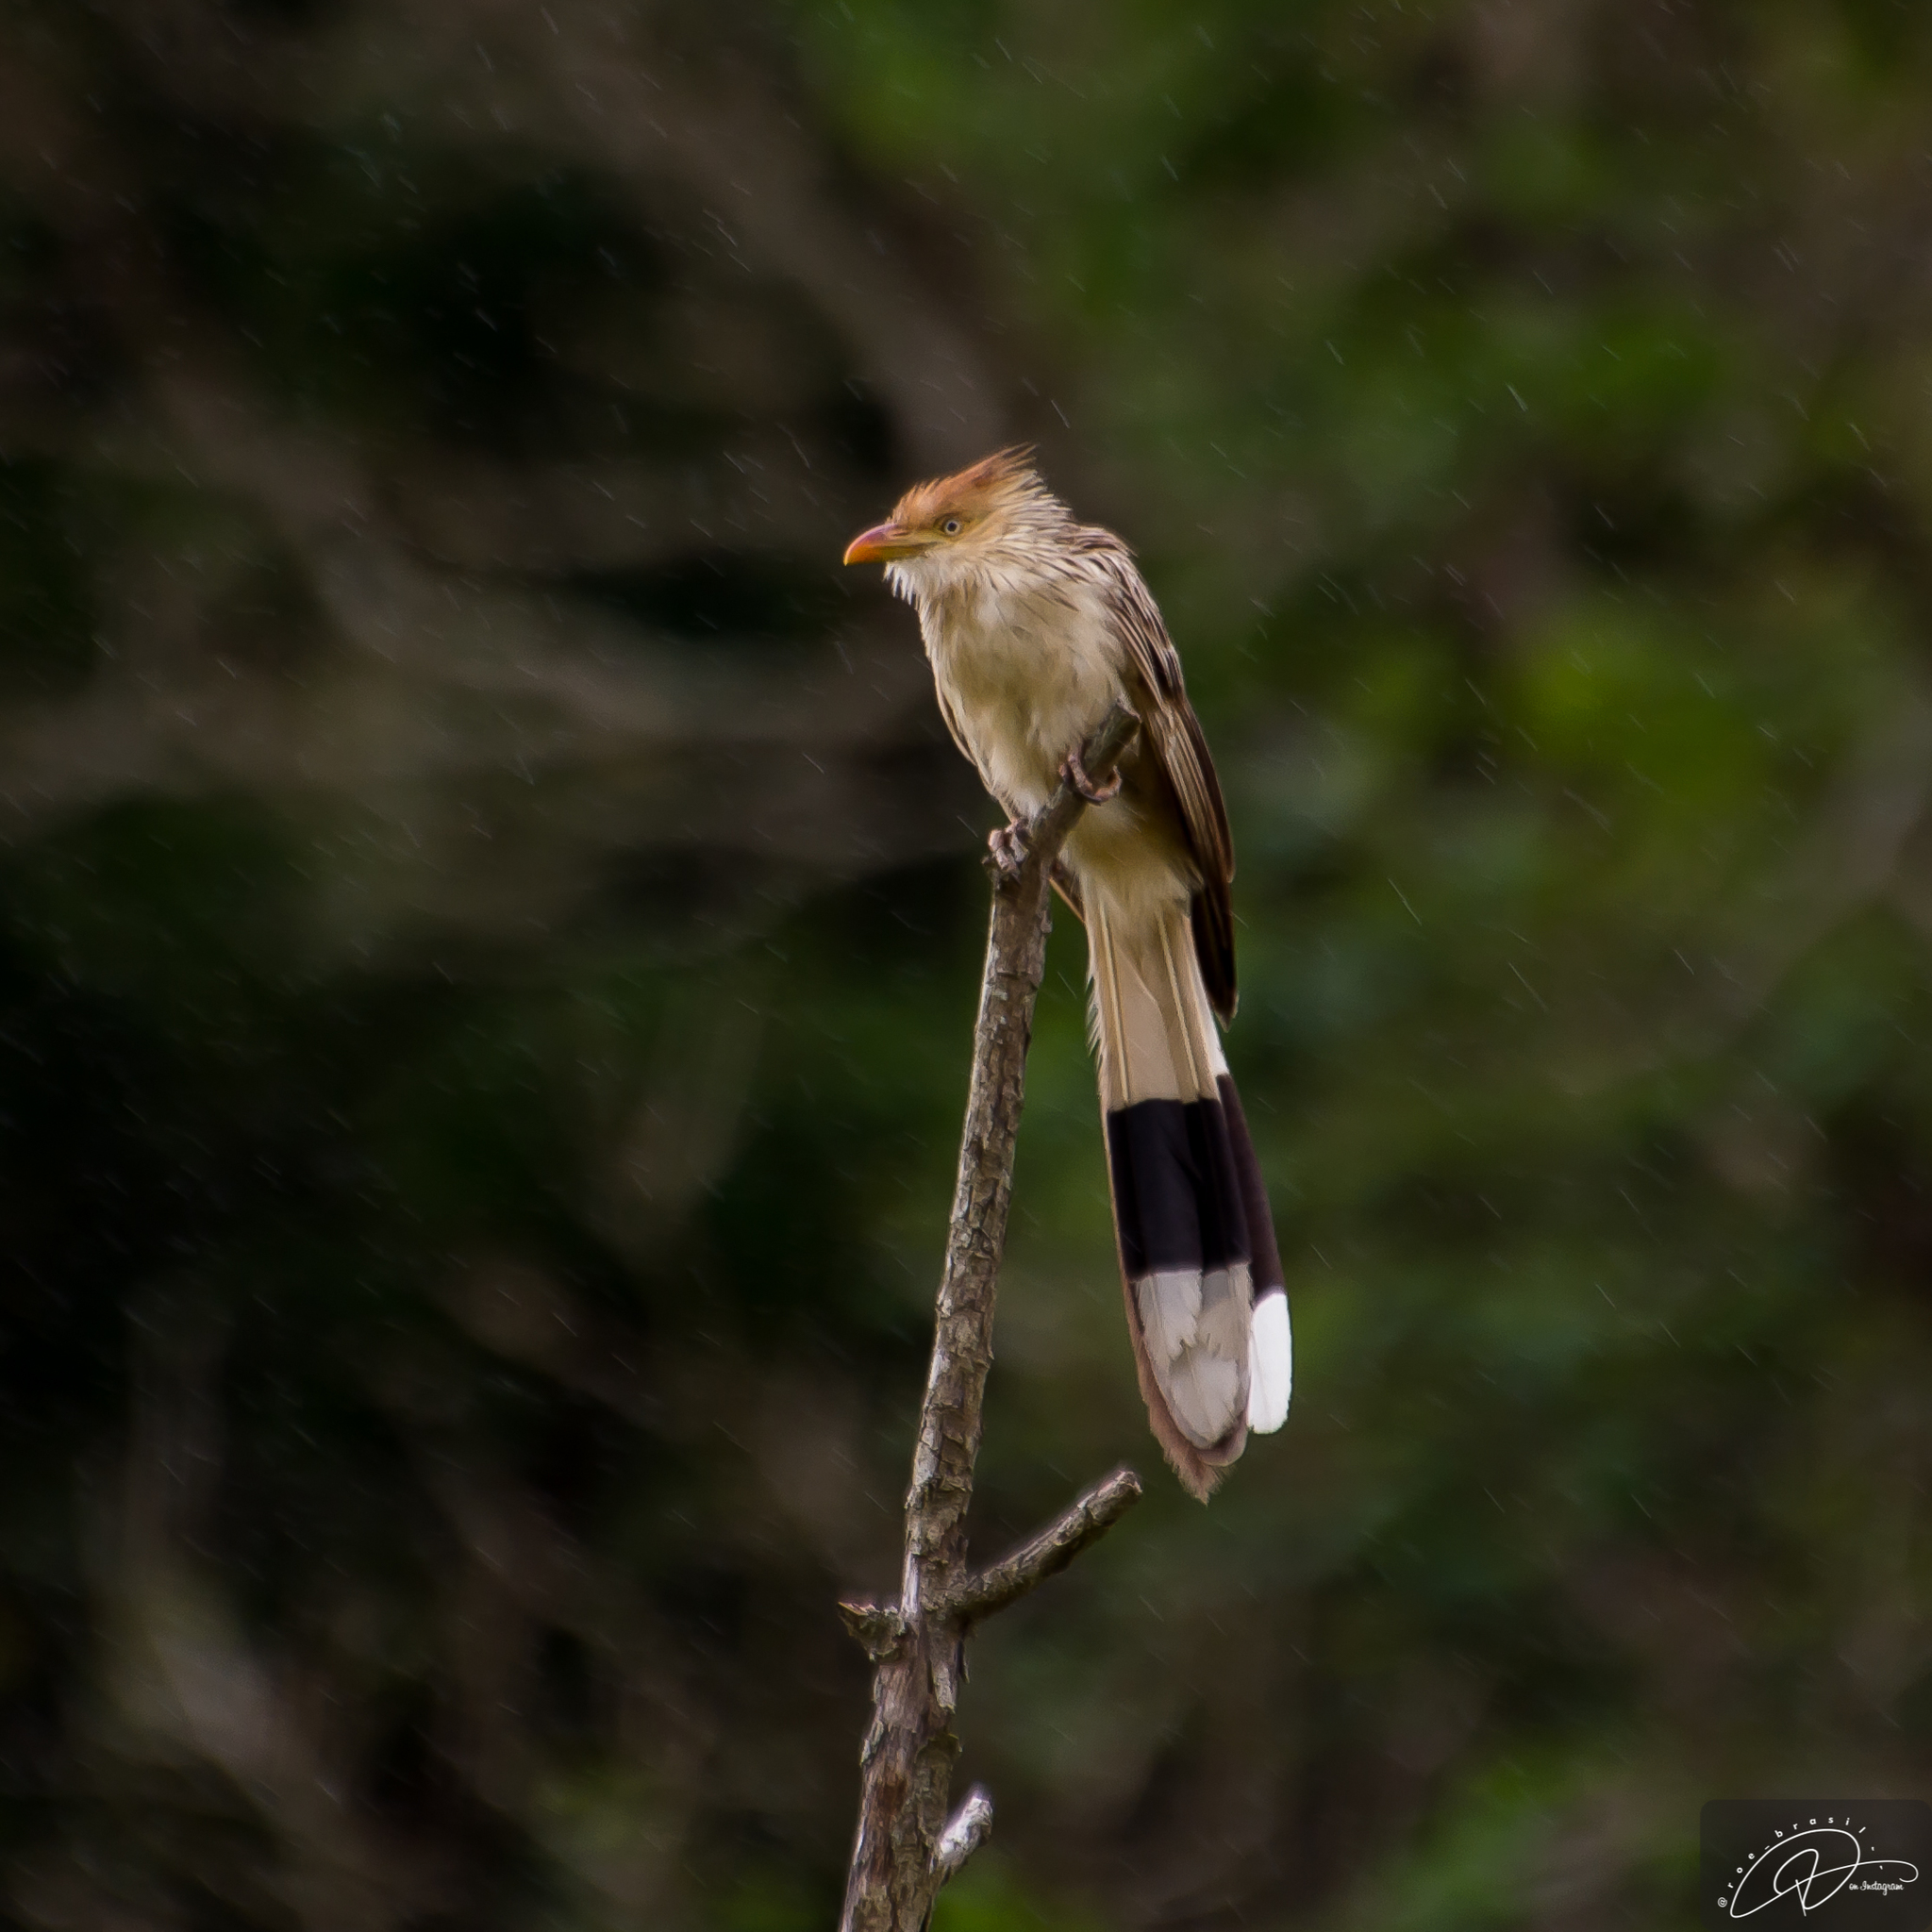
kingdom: Animalia
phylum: Chordata
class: Aves
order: Cuculiformes
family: Cuculidae
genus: Guira
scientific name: Guira guira
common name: Guira cuckoo
